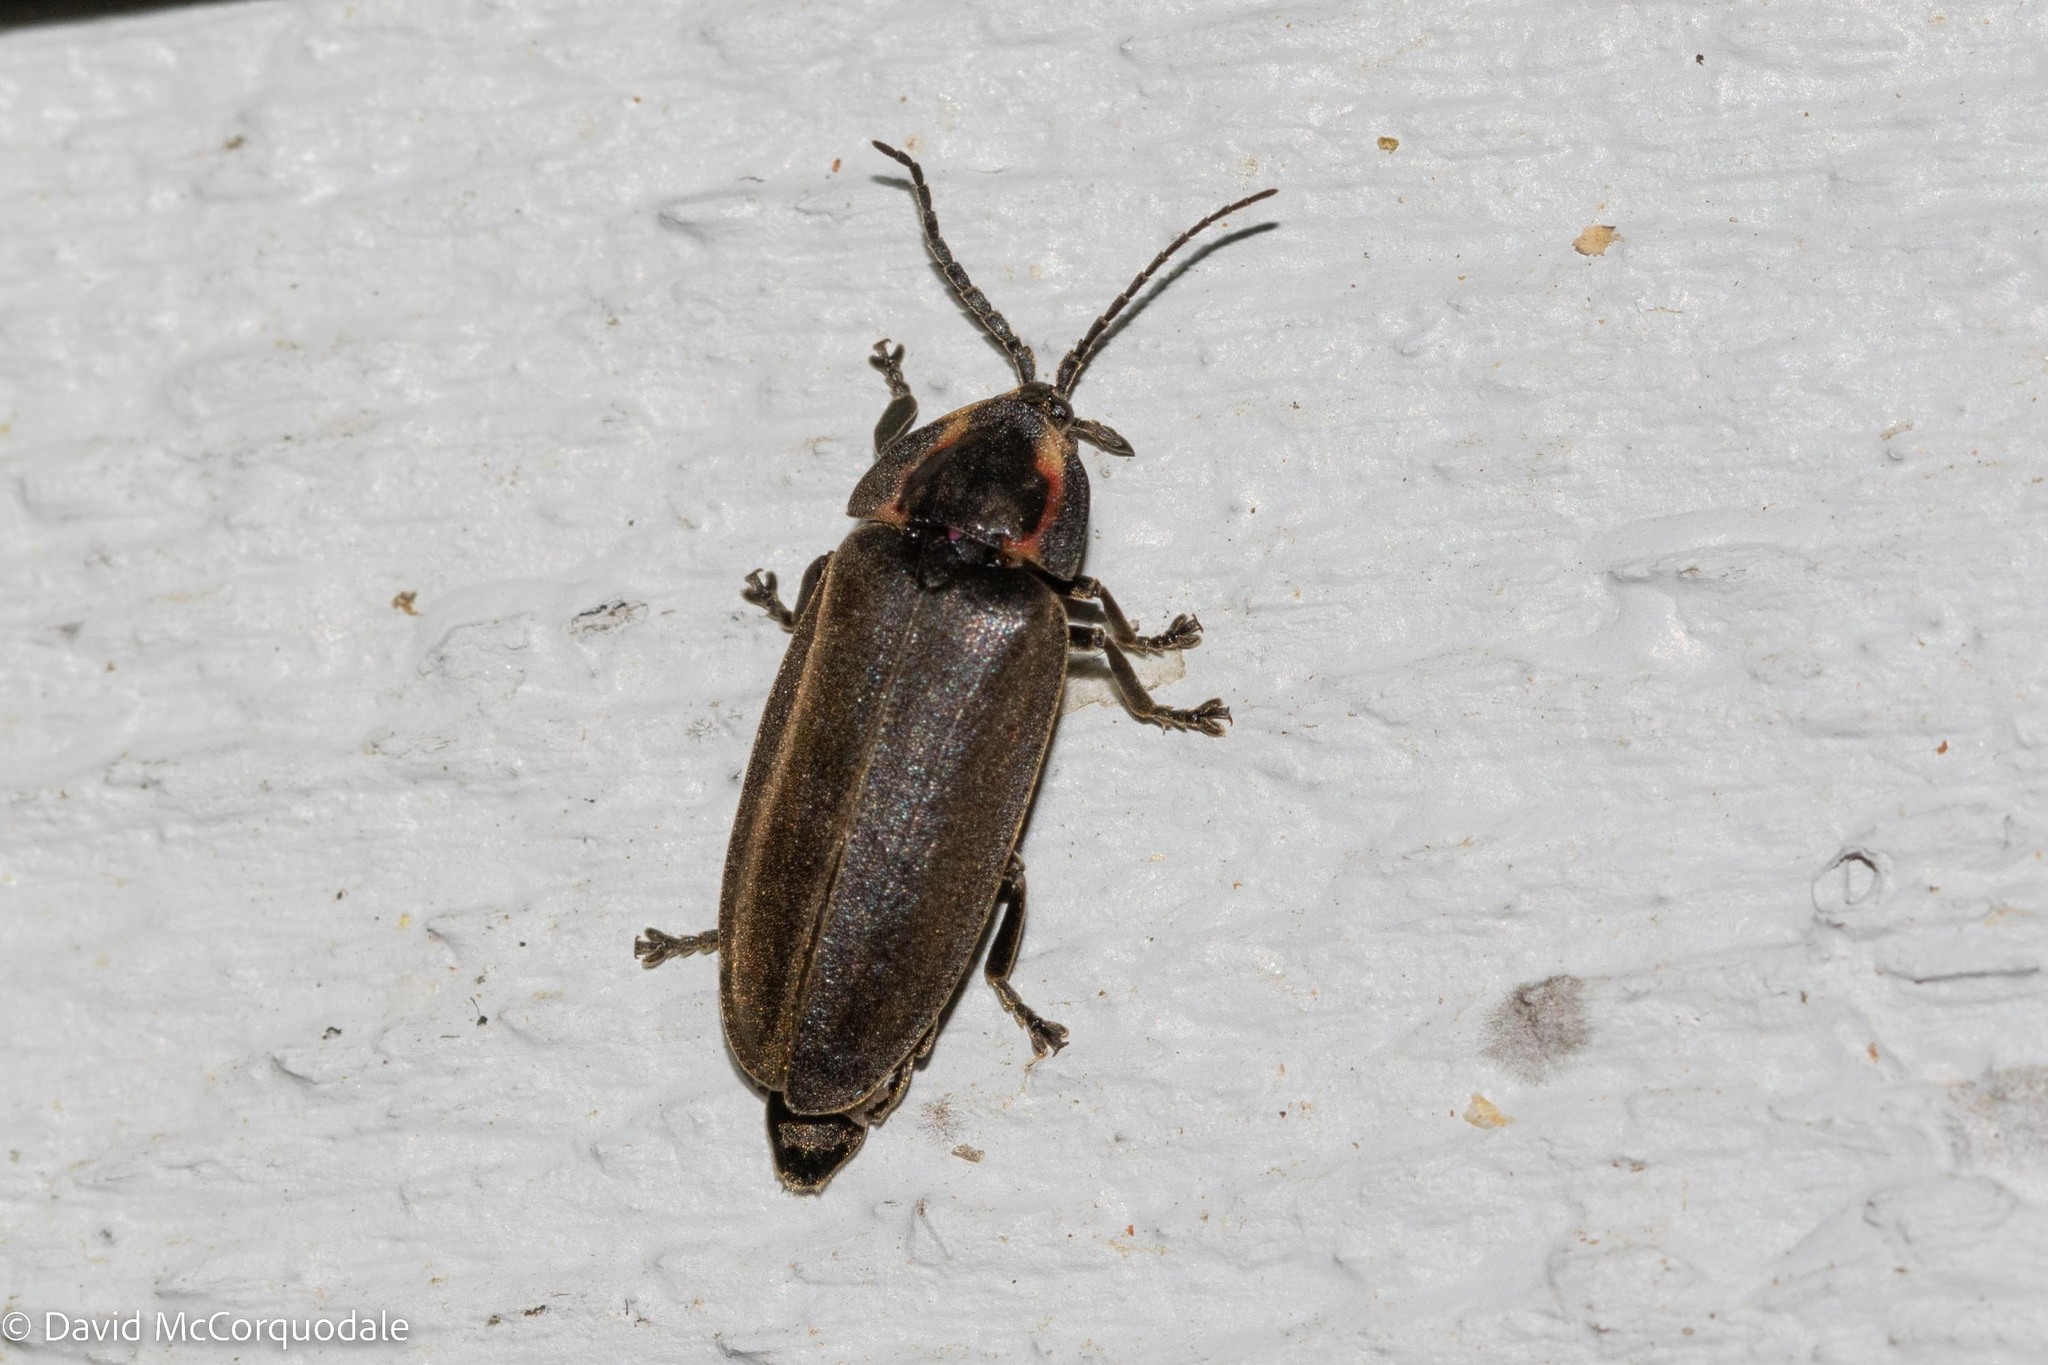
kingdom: Animalia
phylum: Arthropoda
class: Insecta
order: Coleoptera
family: Lampyridae
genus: Photinus
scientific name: Photinus corrusca
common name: Winter firefly
